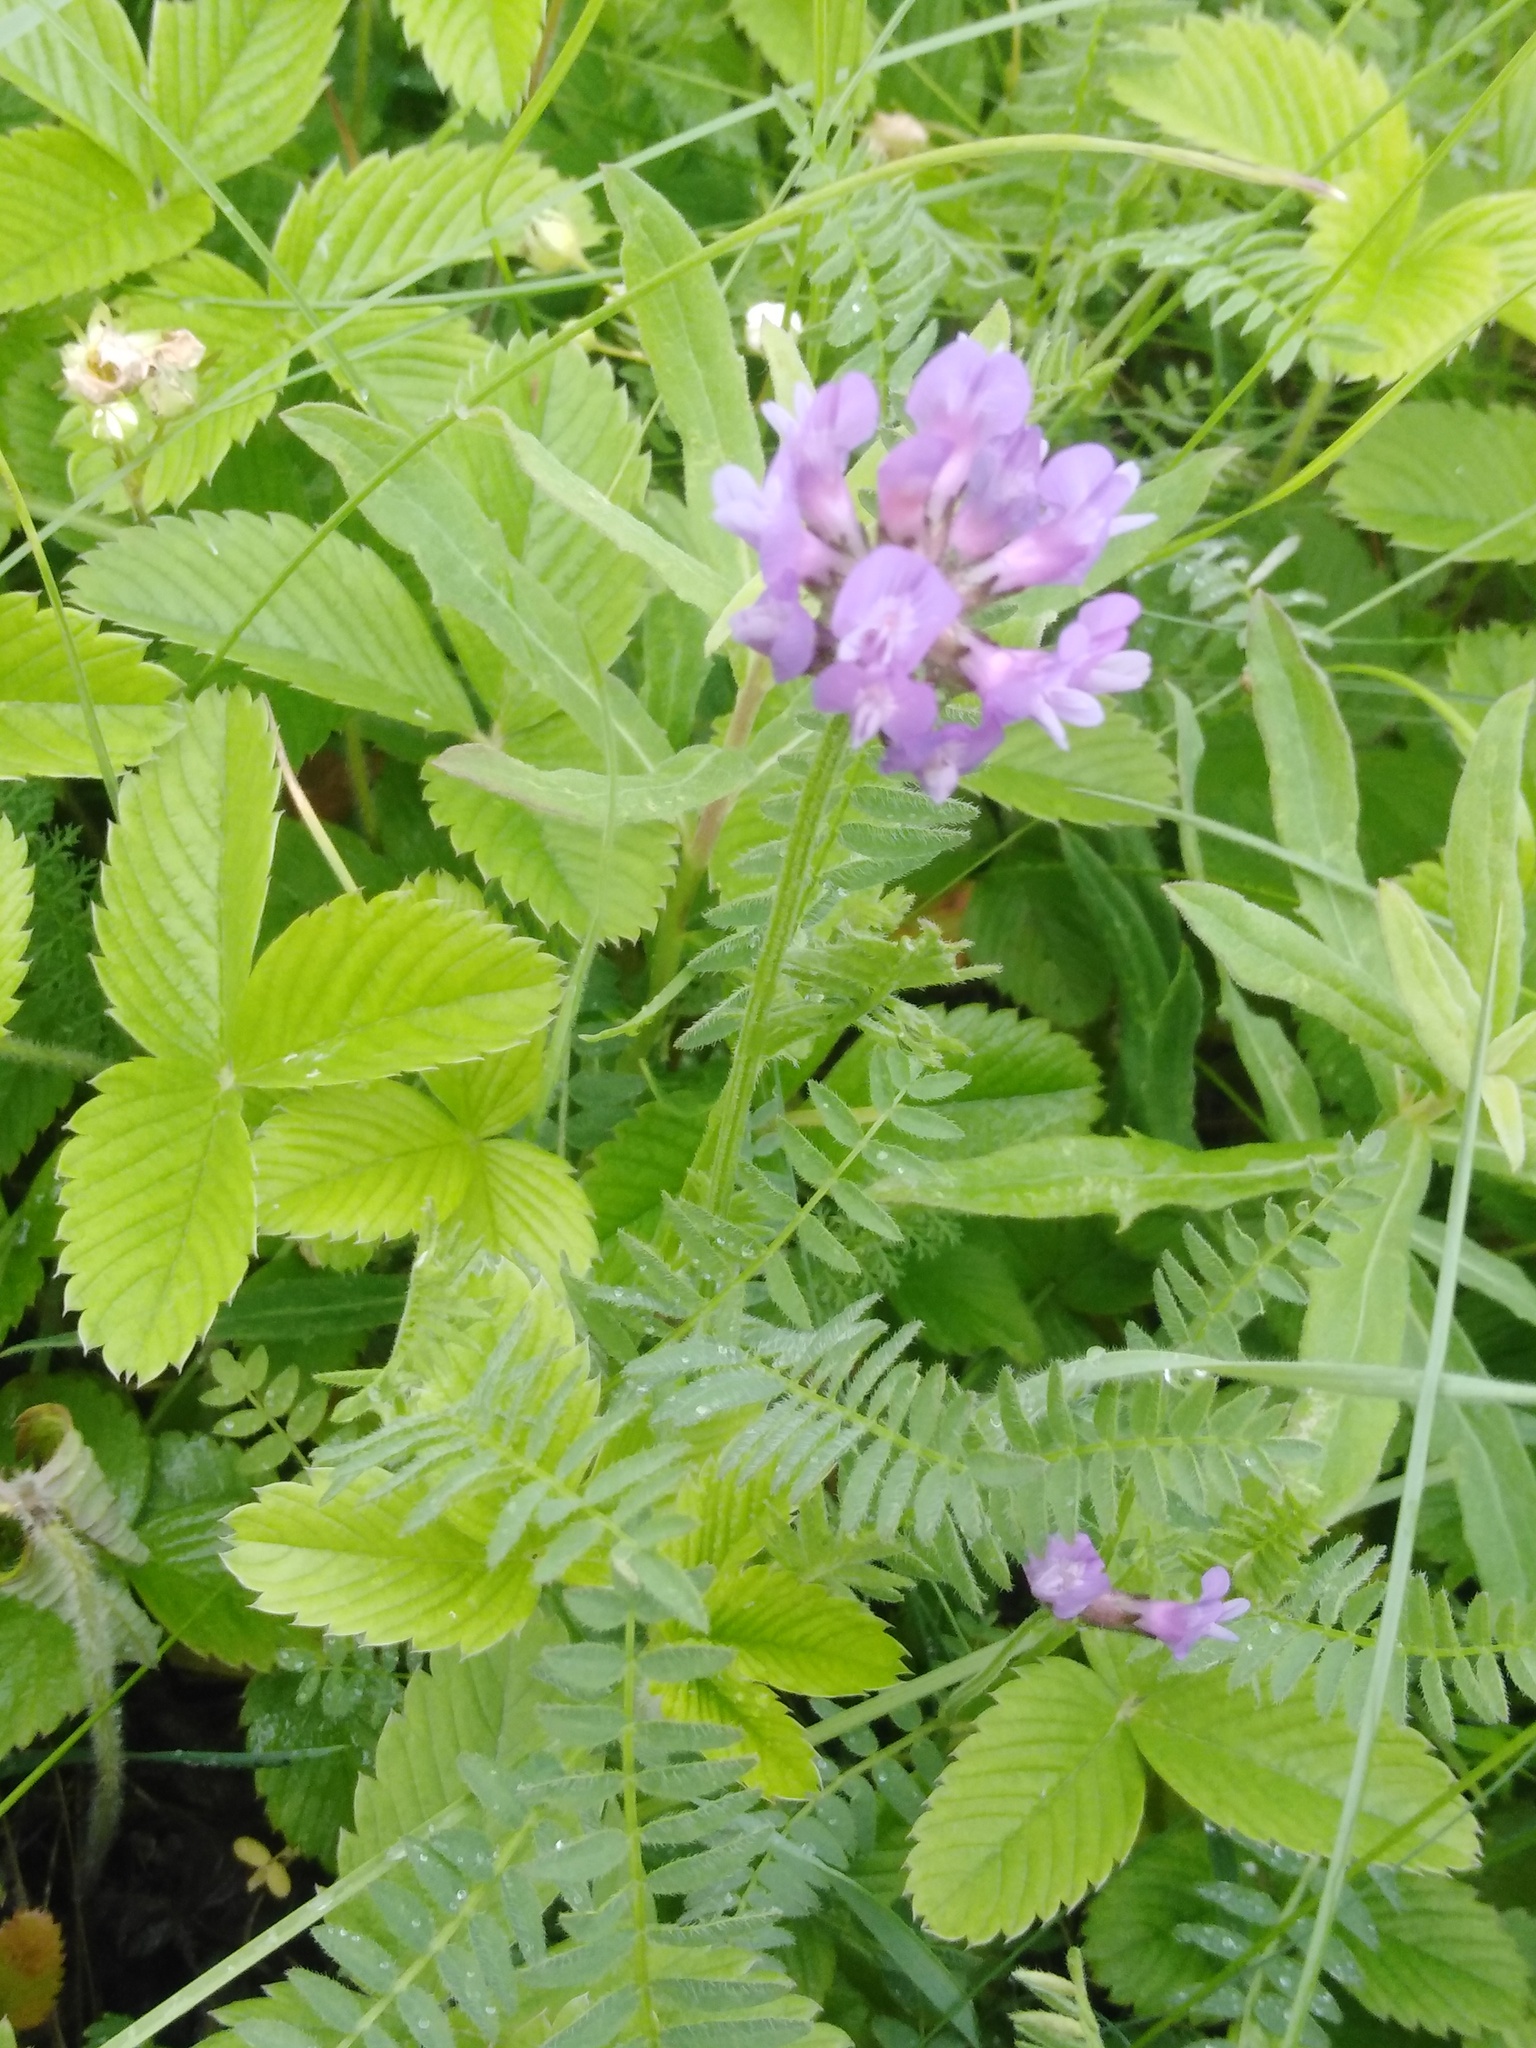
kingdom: Plantae
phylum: Tracheophyta
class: Magnoliopsida
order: Fabales
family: Fabaceae
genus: Astragalus
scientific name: Astragalus danicus
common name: Purple milk-vetch
